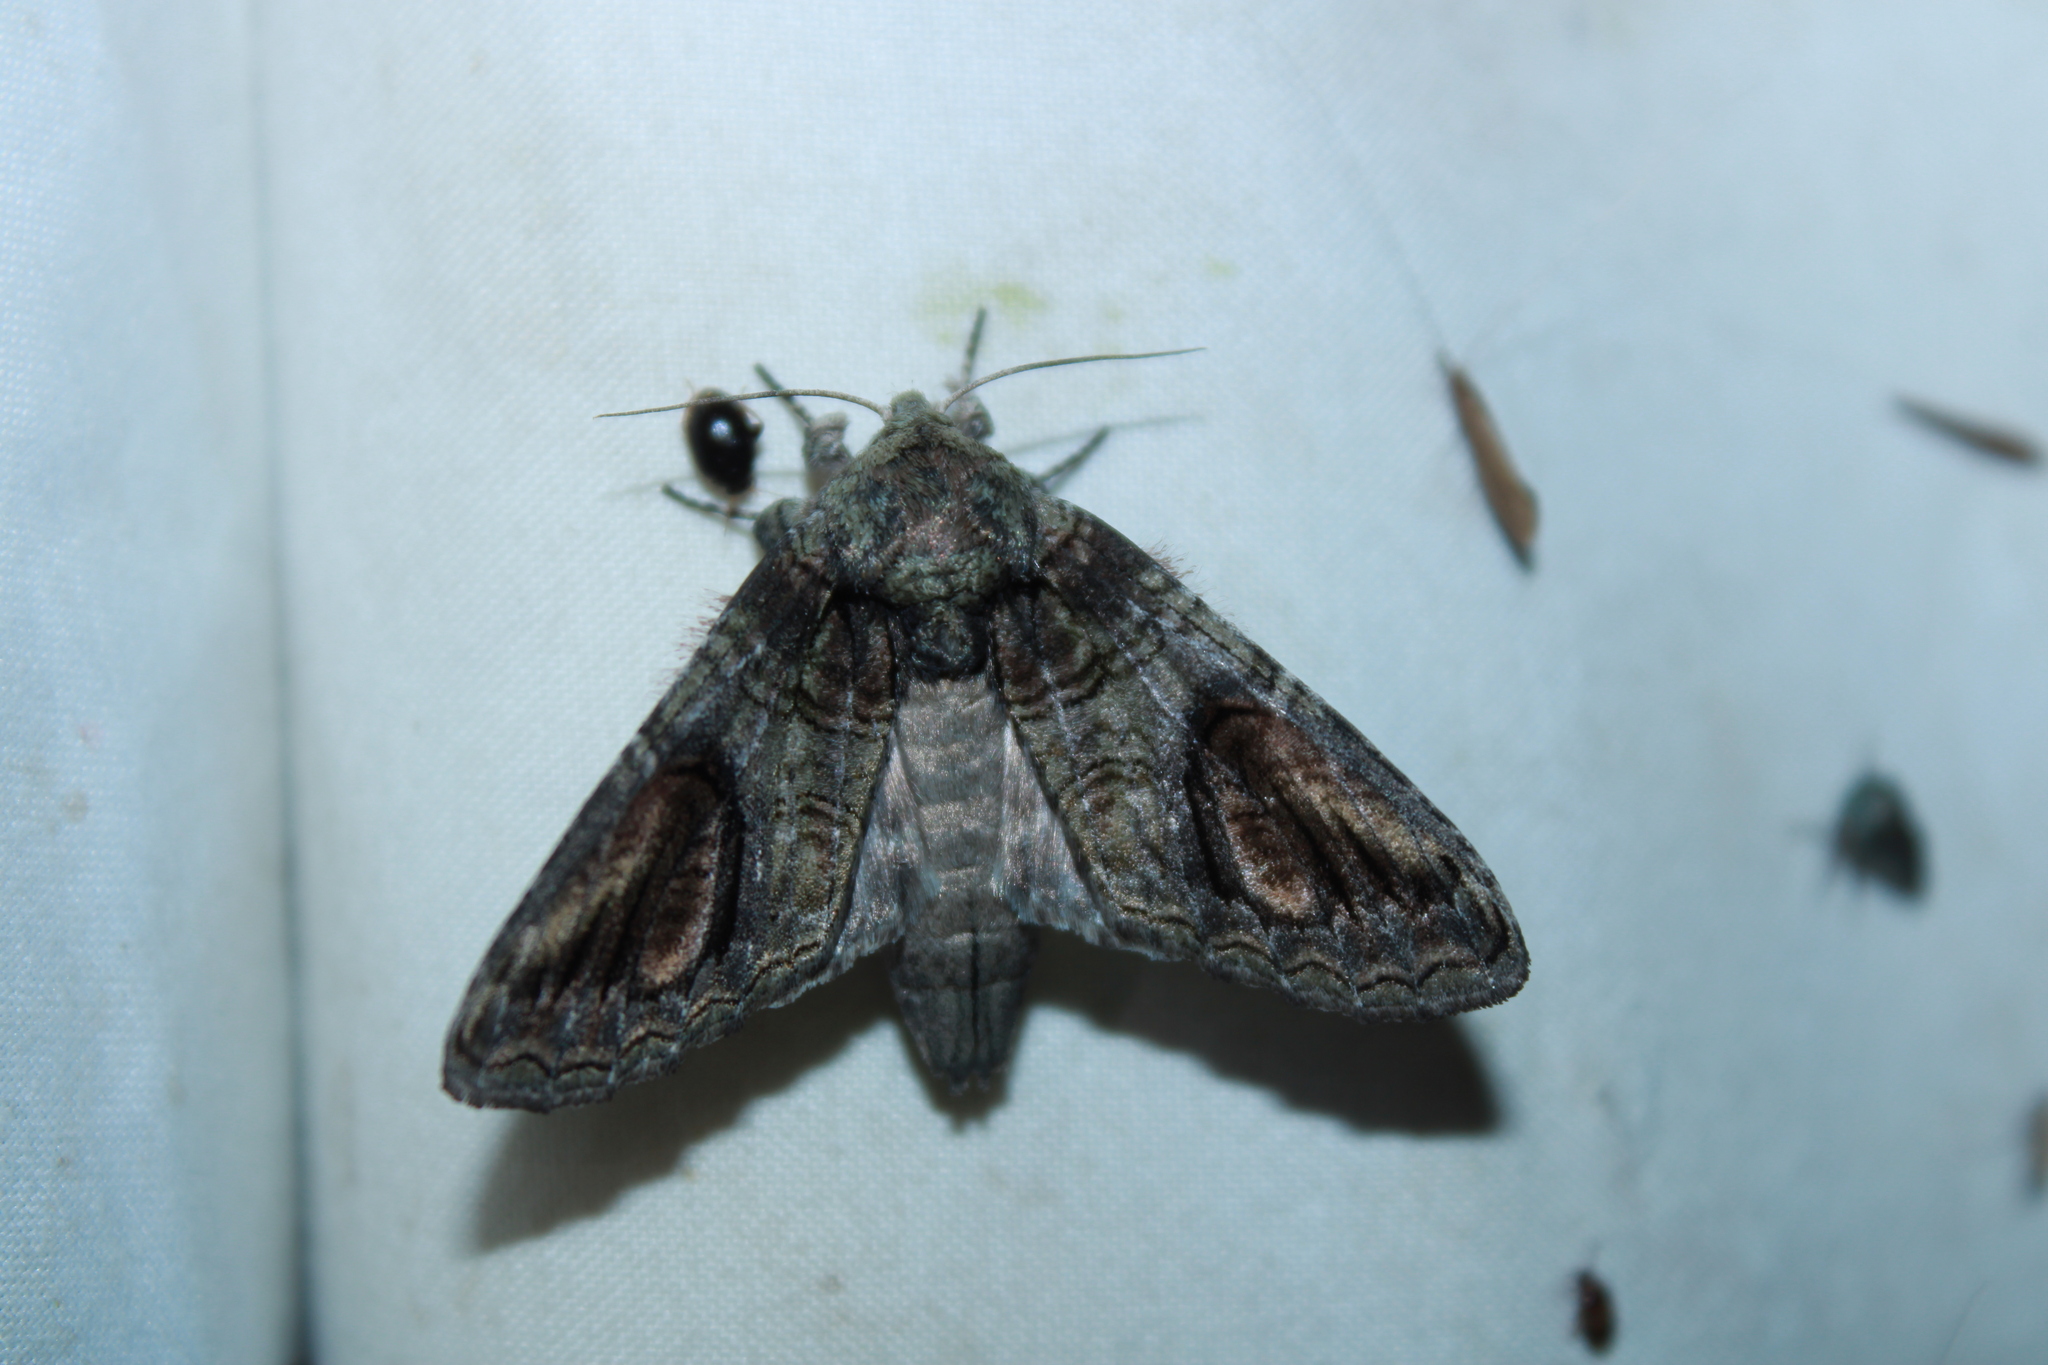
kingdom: Animalia
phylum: Arthropoda
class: Insecta
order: Lepidoptera
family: Notodontidae
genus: Heterocampa
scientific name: Heterocampa obliqua
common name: Oblique heterocampa
